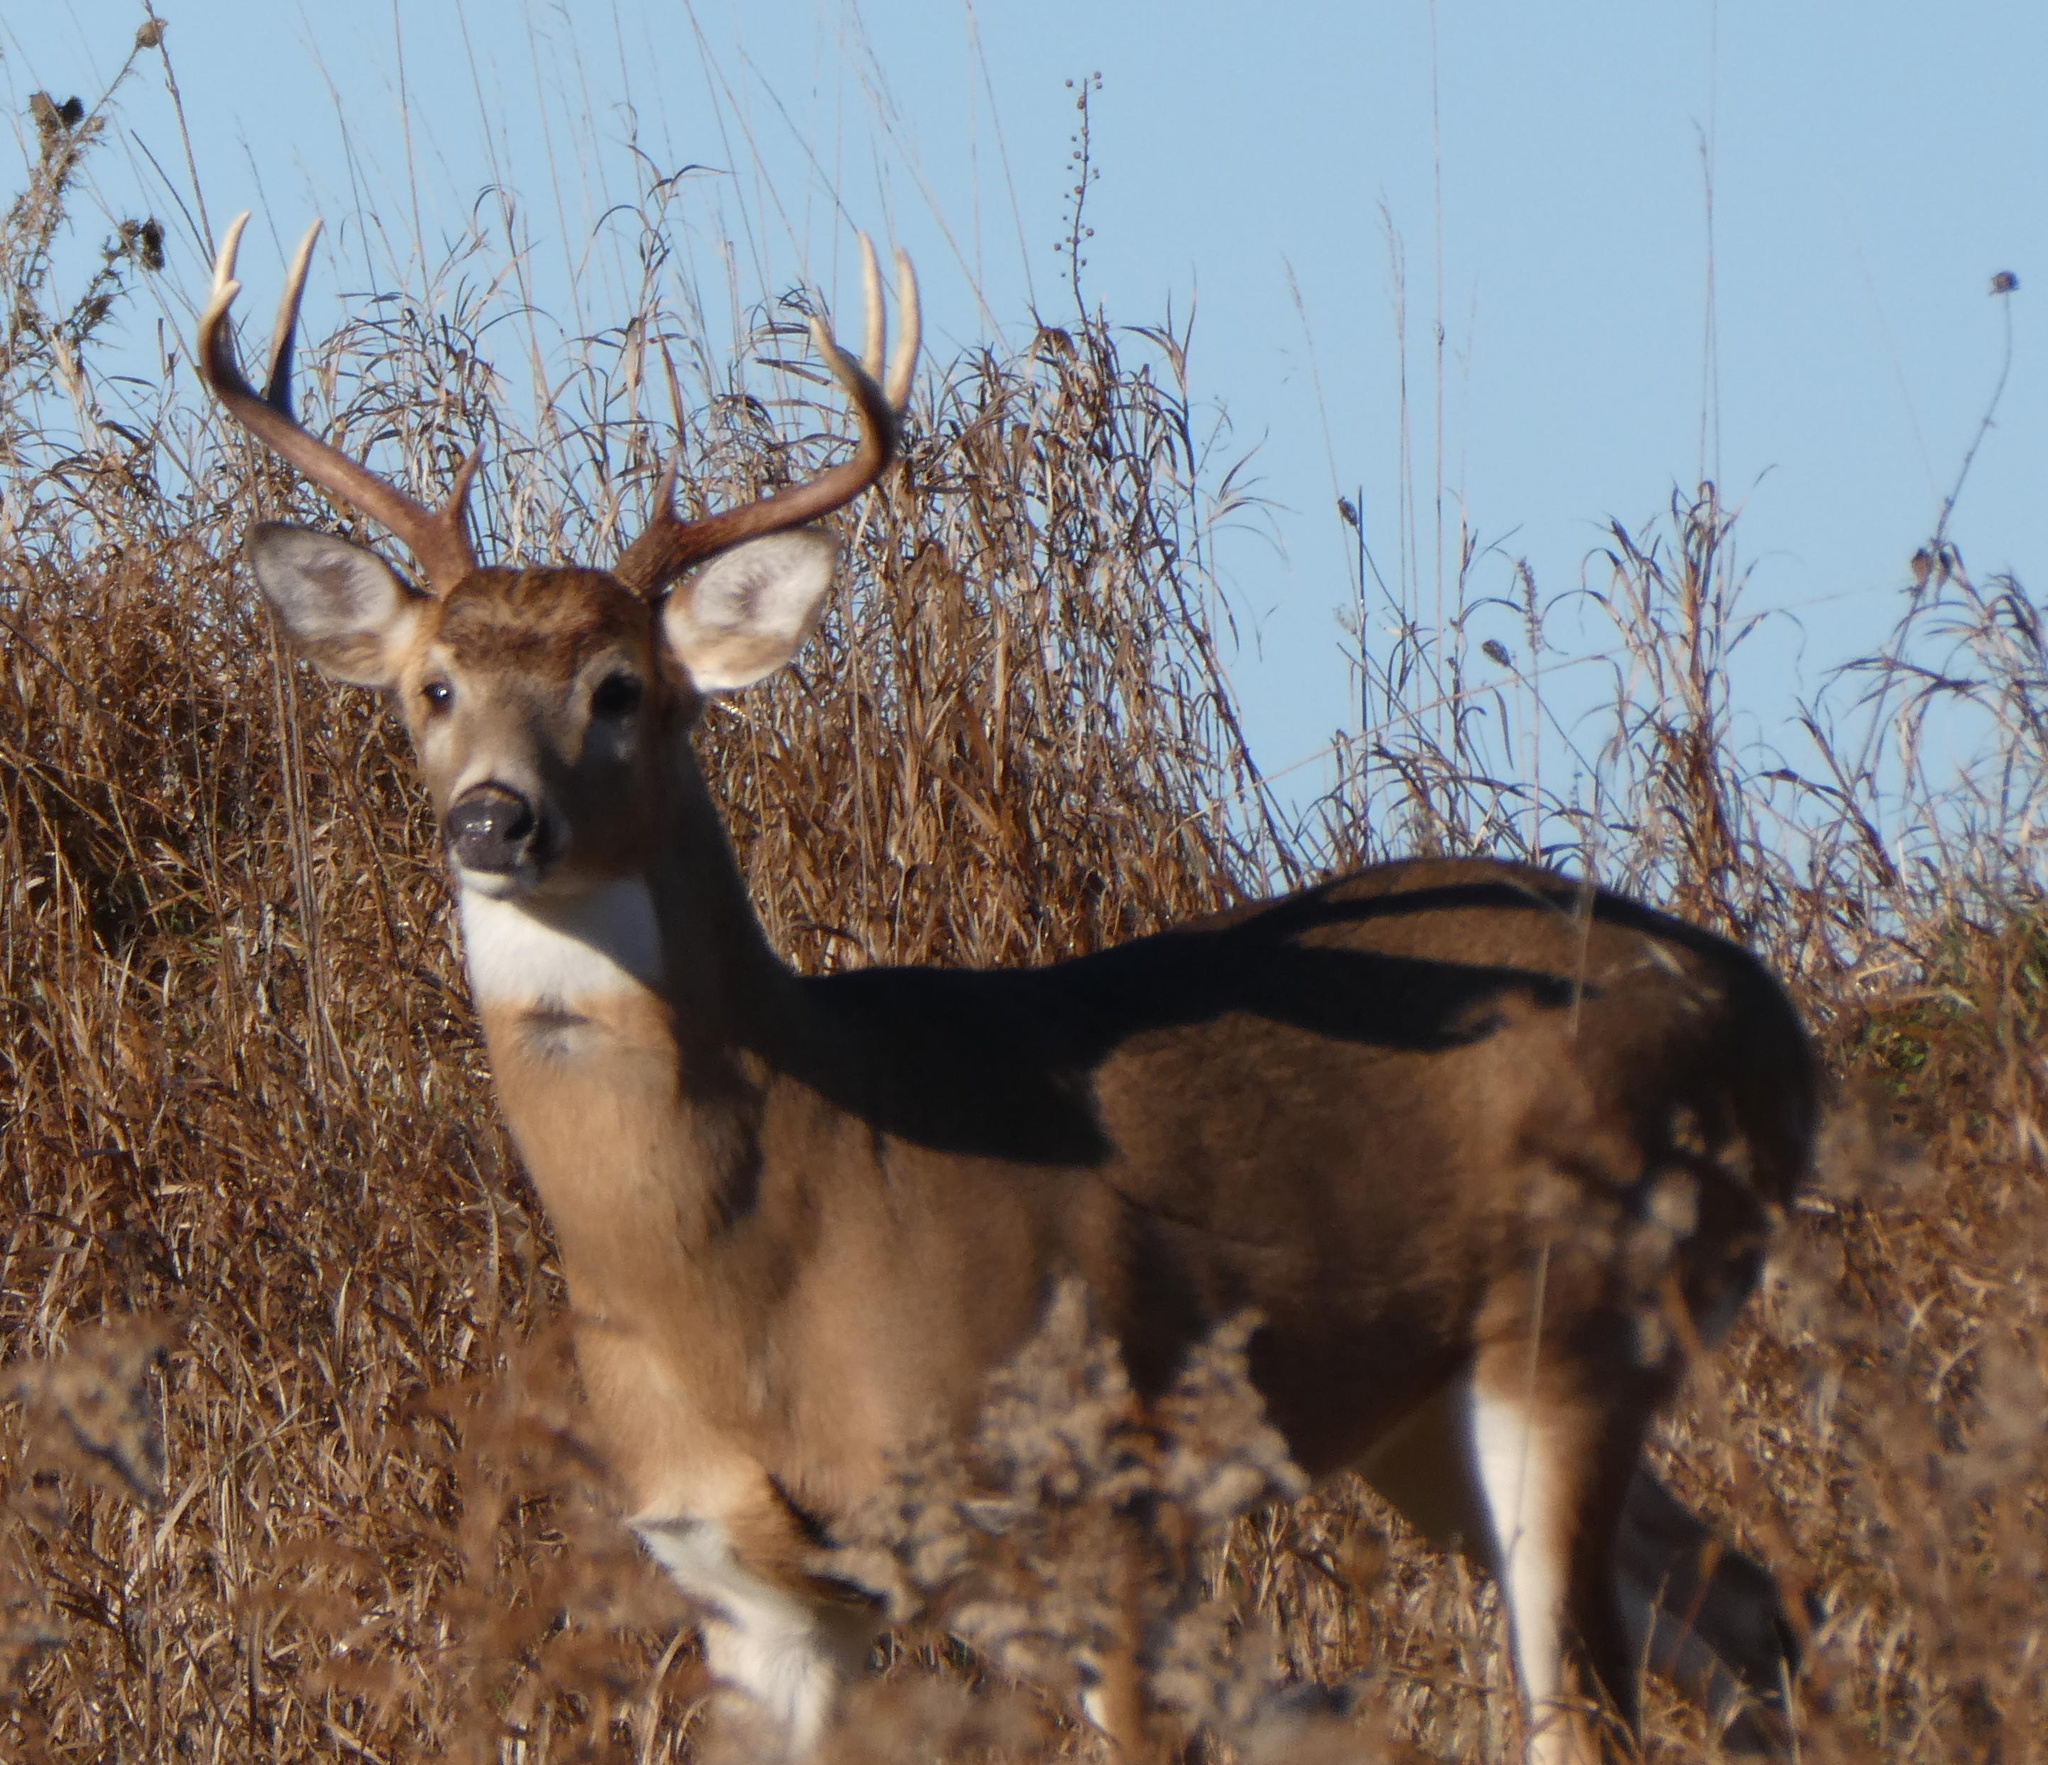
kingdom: Animalia
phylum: Chordata
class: Mammalia
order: Artiodactyla
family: Cervidae
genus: Odocoileus
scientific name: Odocoileus virginianus
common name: White-tailed deer
